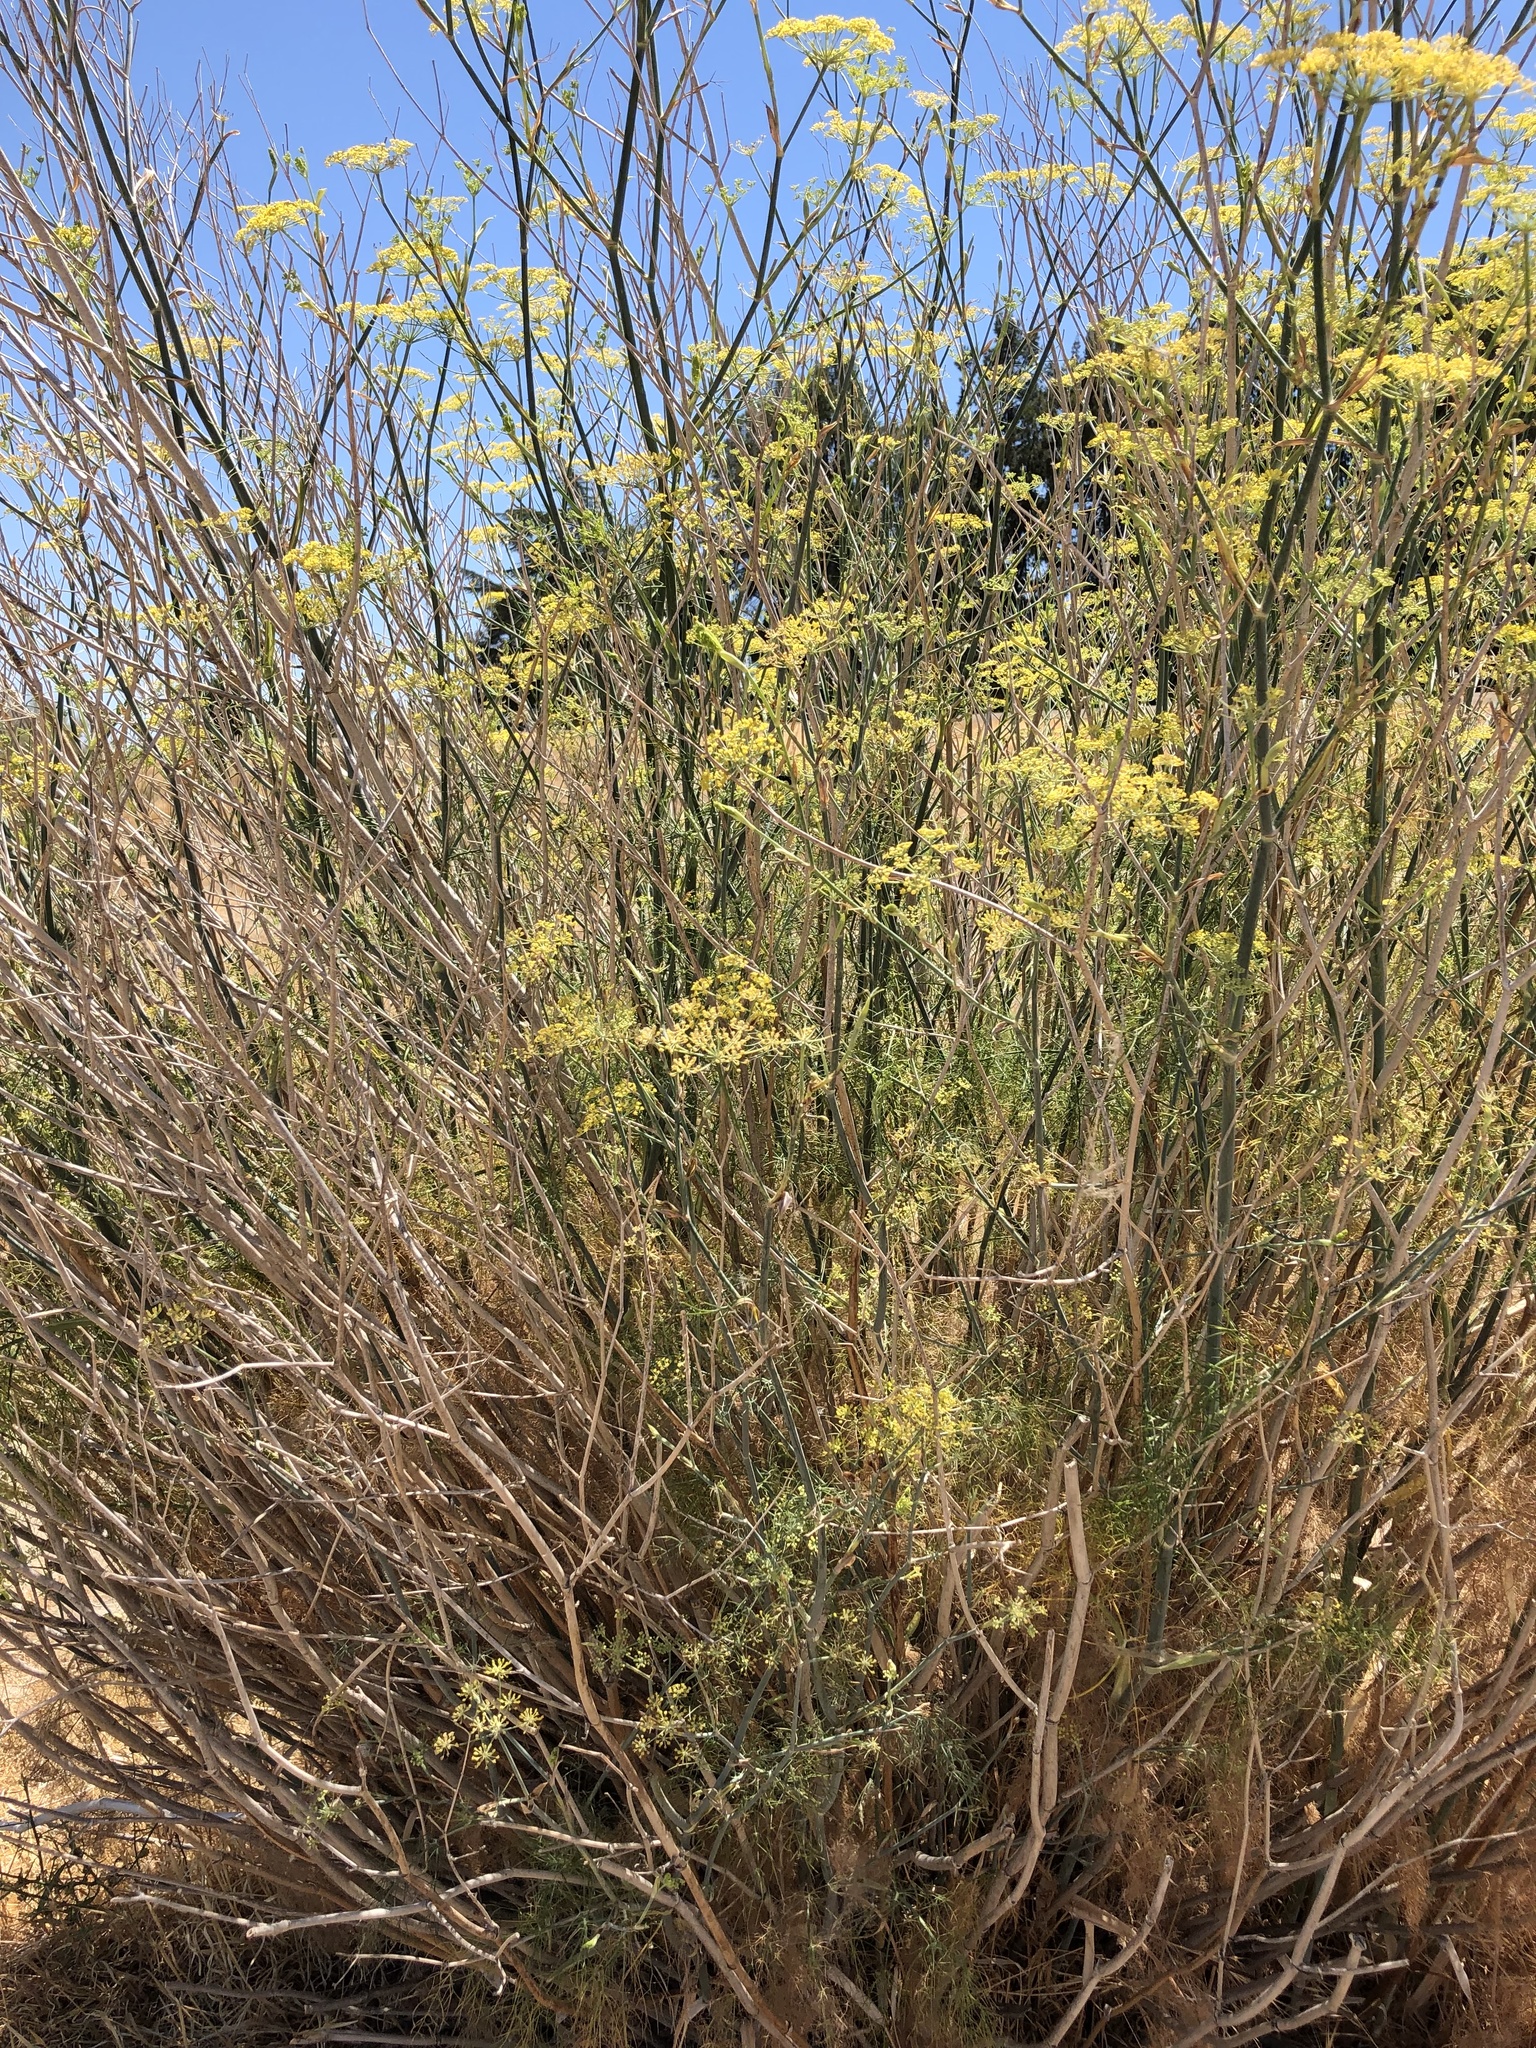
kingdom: Plantae
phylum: Tracheophyta
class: Magnoliopsida
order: Apiales
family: Apiaceae
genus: Foeniculum
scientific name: Foeniculum vulgare
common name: Fennel
